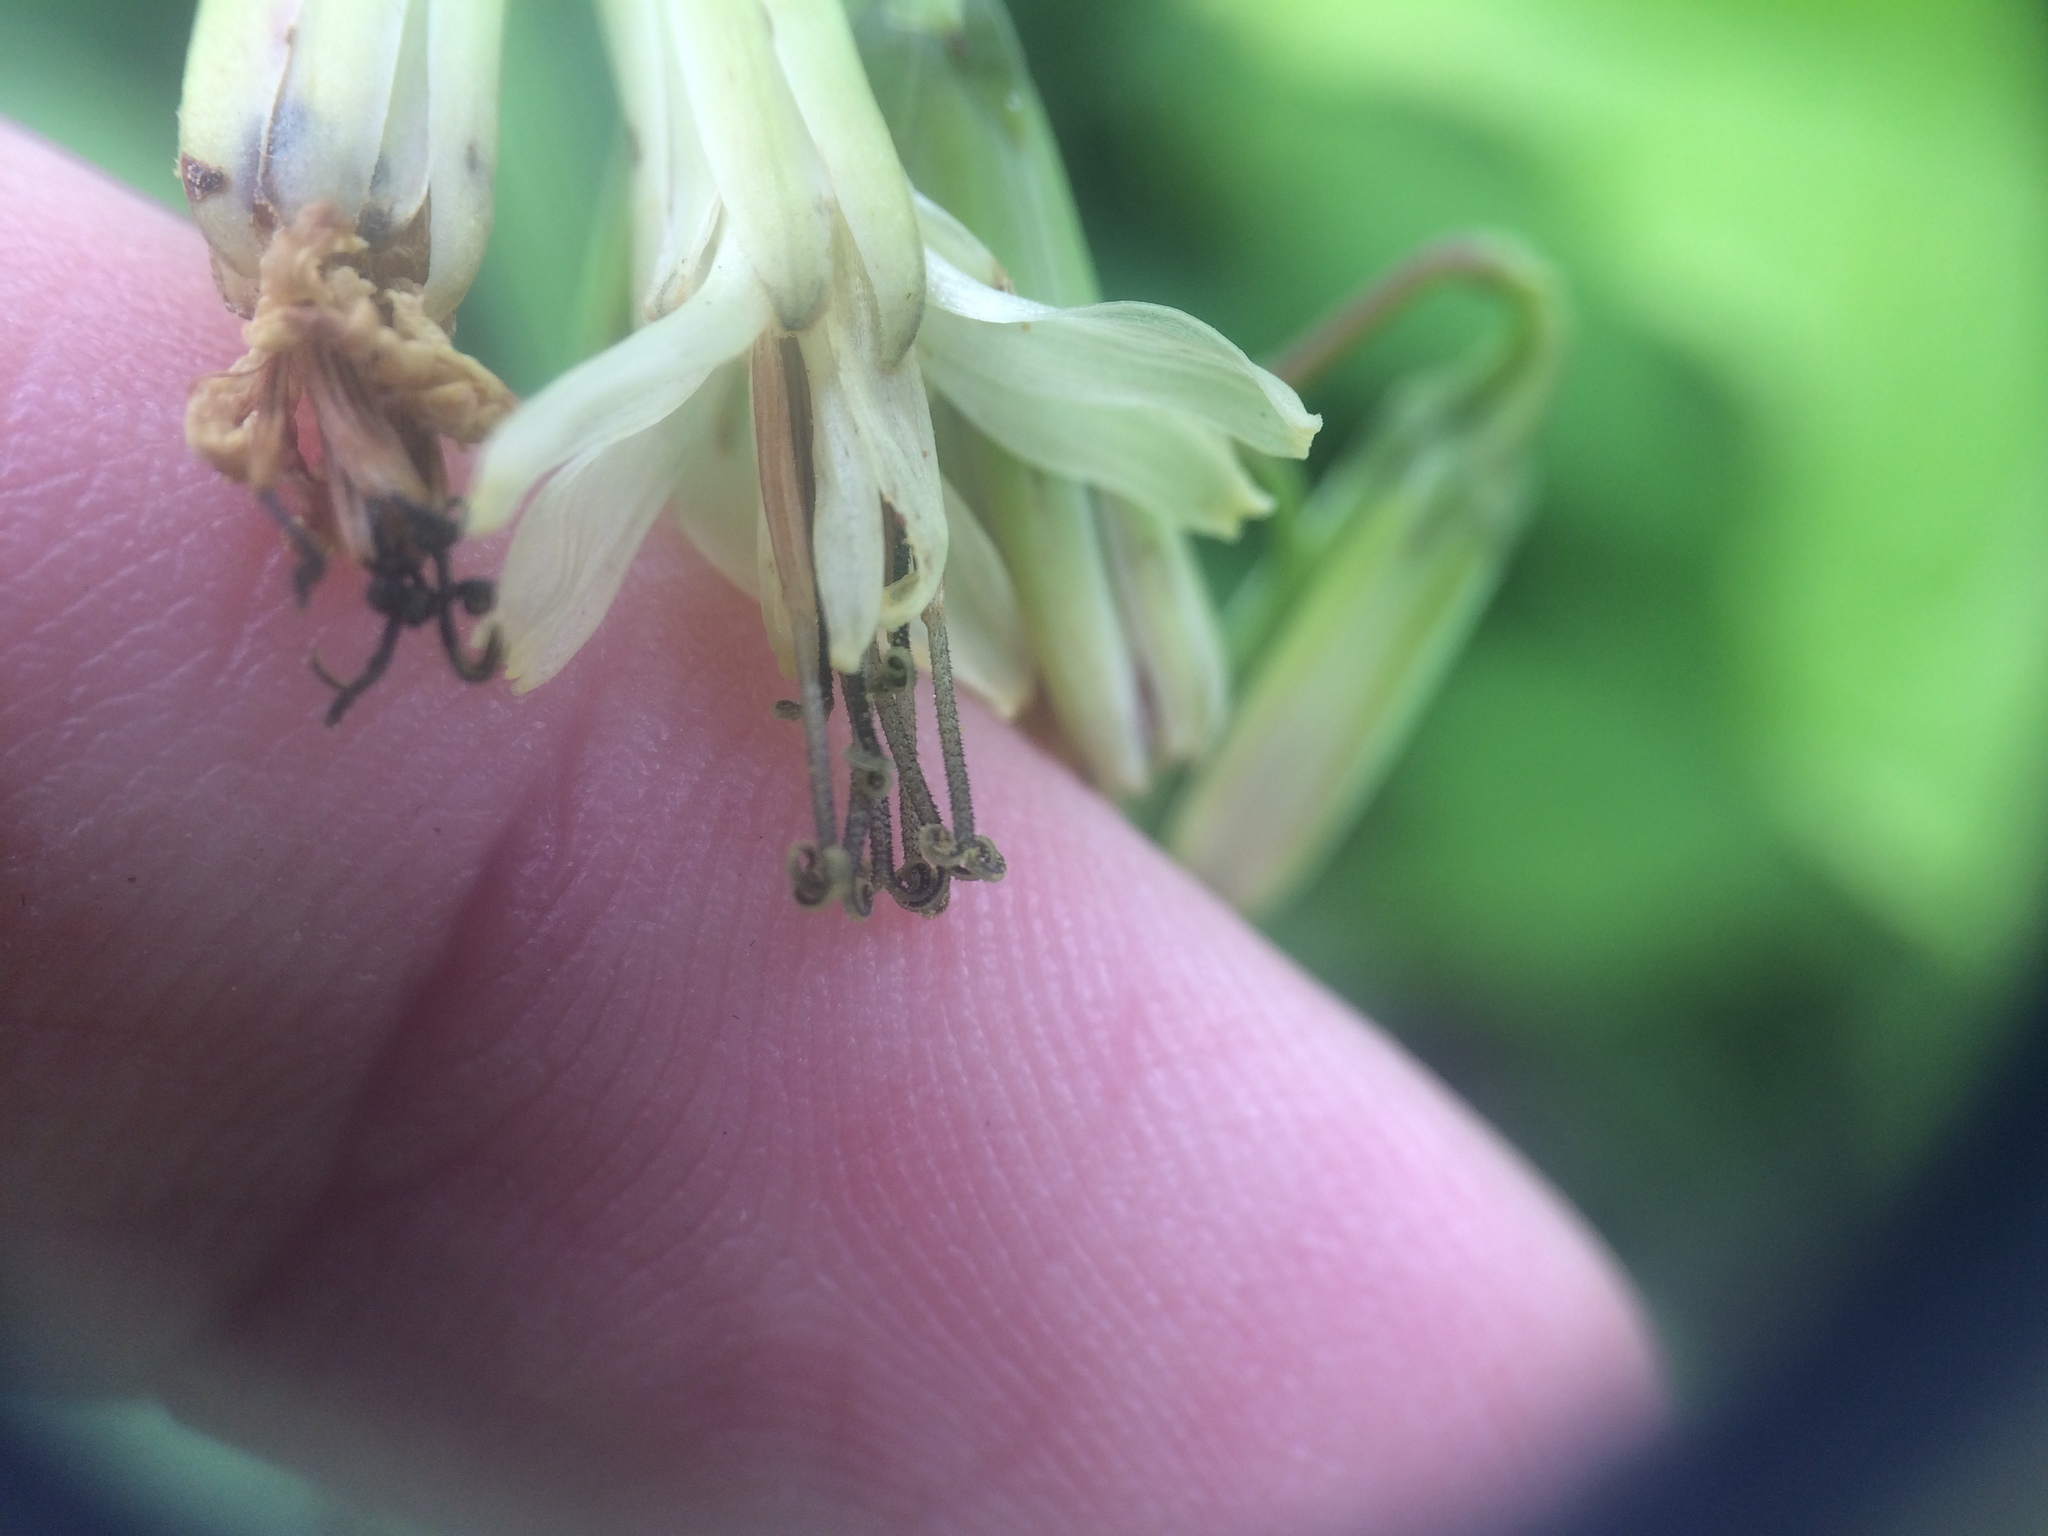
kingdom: Plantae
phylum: Tracheophyta
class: Magnoliopsida
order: Asterales
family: Asteraceae
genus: Nabalus
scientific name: Nabalus trifoliolatus
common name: Gall-of-the-earth
